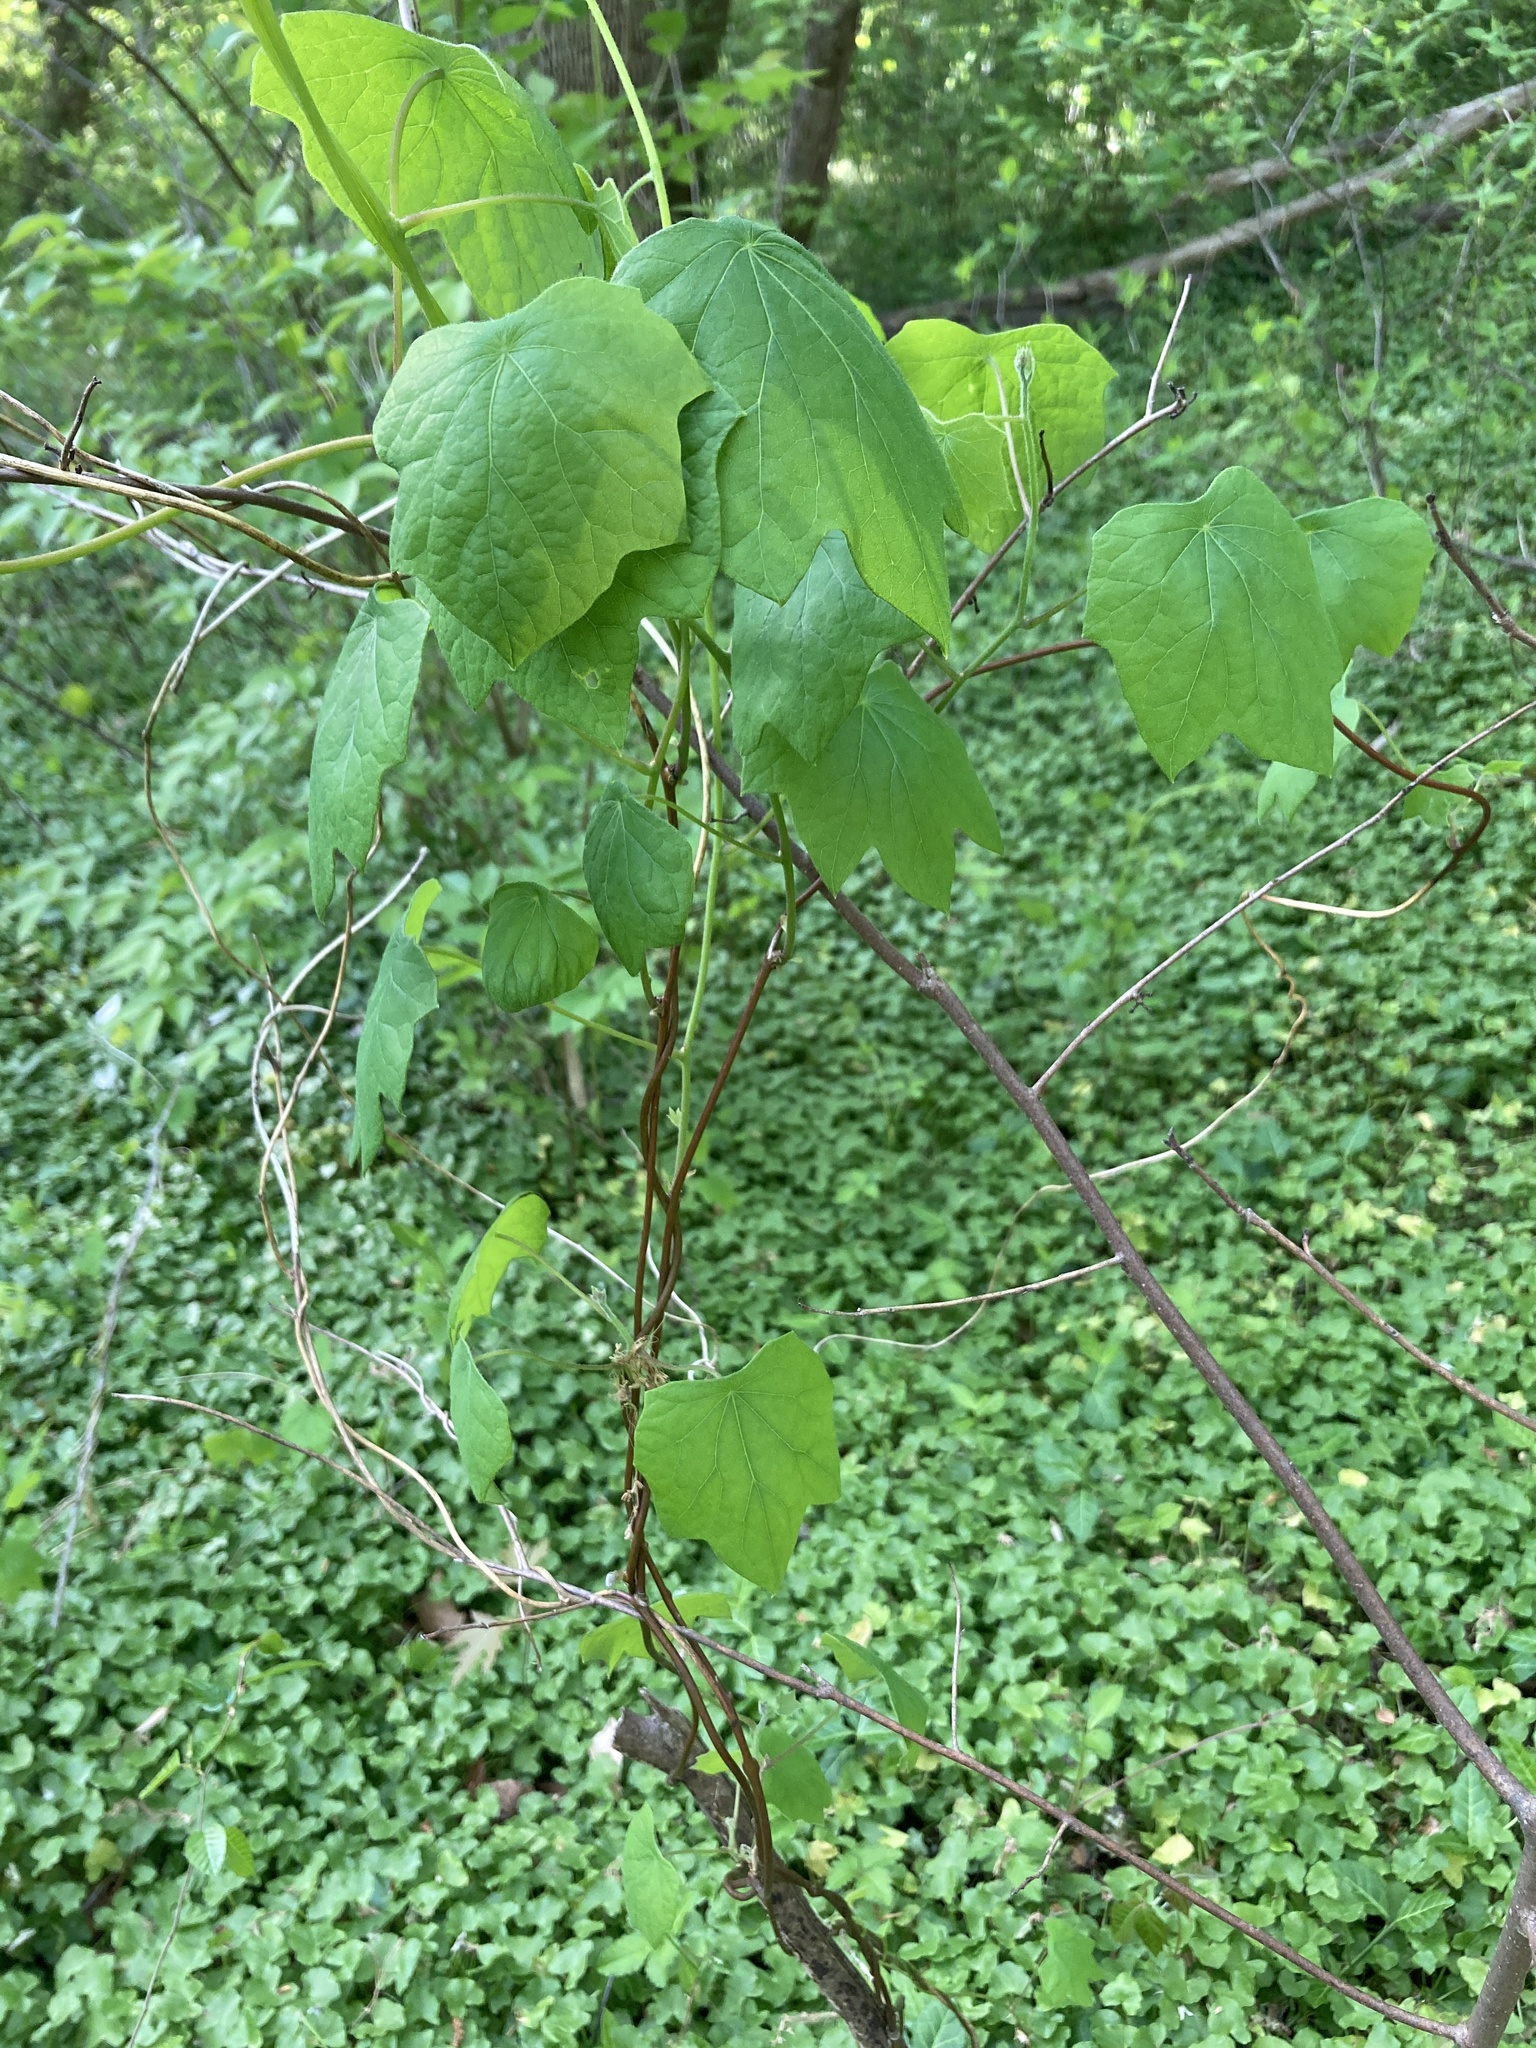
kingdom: Plantae
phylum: Tracheophyta
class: Magnoliopsida
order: Ranunculales
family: Menispermaceae
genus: Menispermum
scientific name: Menispermum canadense
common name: Moonseed
